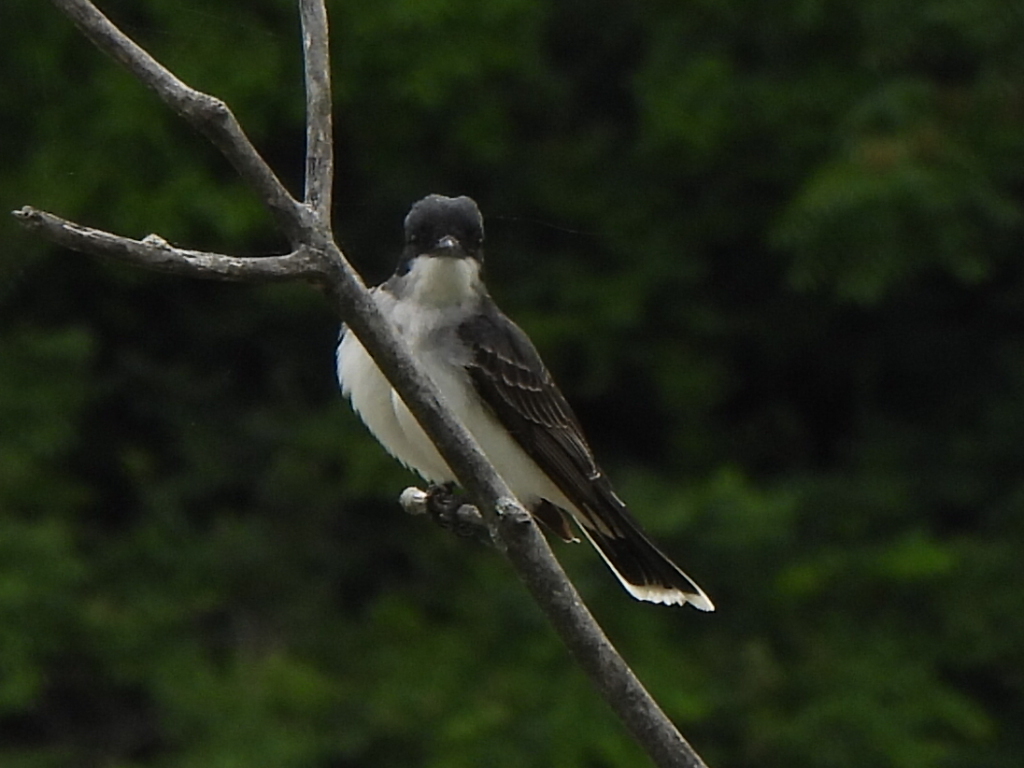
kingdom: Animalia
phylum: Chordata
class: Aves
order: Passeriformes
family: Tyrannidae
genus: Tyrannus
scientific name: Tyrannus tyrannus
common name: Eastern kingbird
